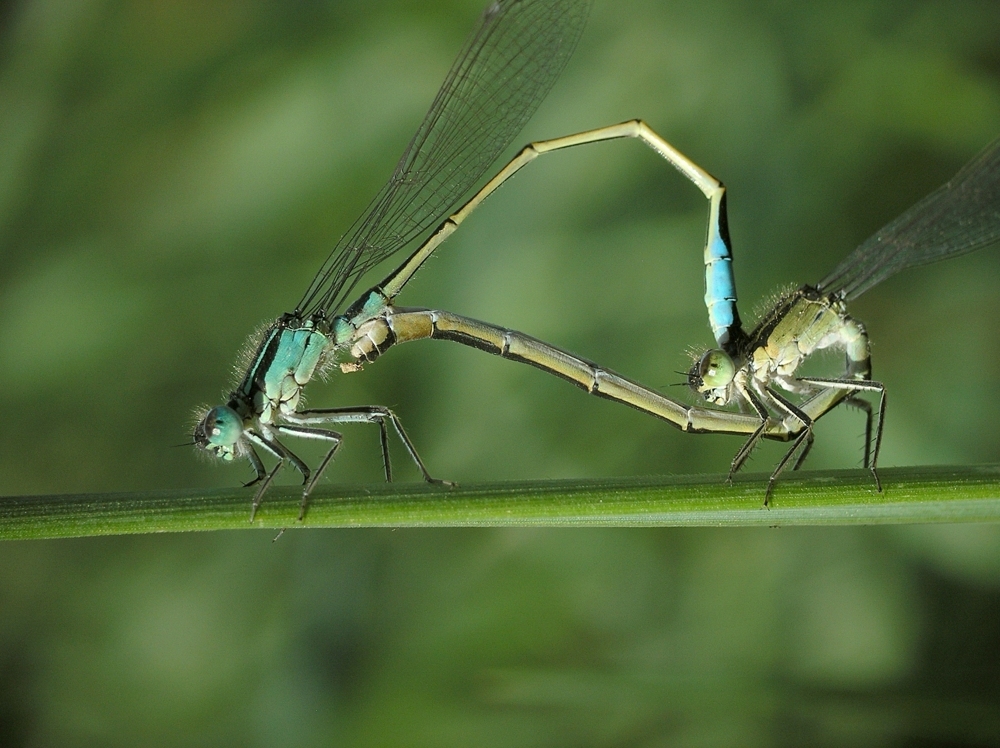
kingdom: Animalia
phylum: Arthropoda
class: Insecta
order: Odonata
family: Coenagrionidae
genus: Ischnura
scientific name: Ischnura elegans
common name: Blue-tailed damselfly
